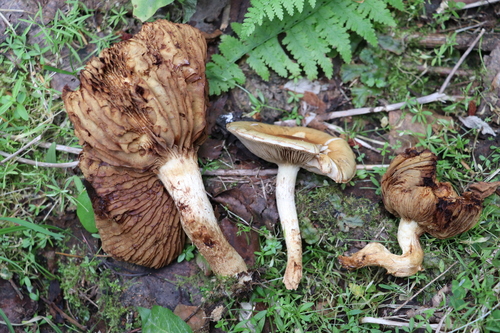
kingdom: Fungi
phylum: Basidiomycota
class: Agaricomycetes
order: Agaricales
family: Strophariaceae
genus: Pholiota
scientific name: Pholiota elegans
